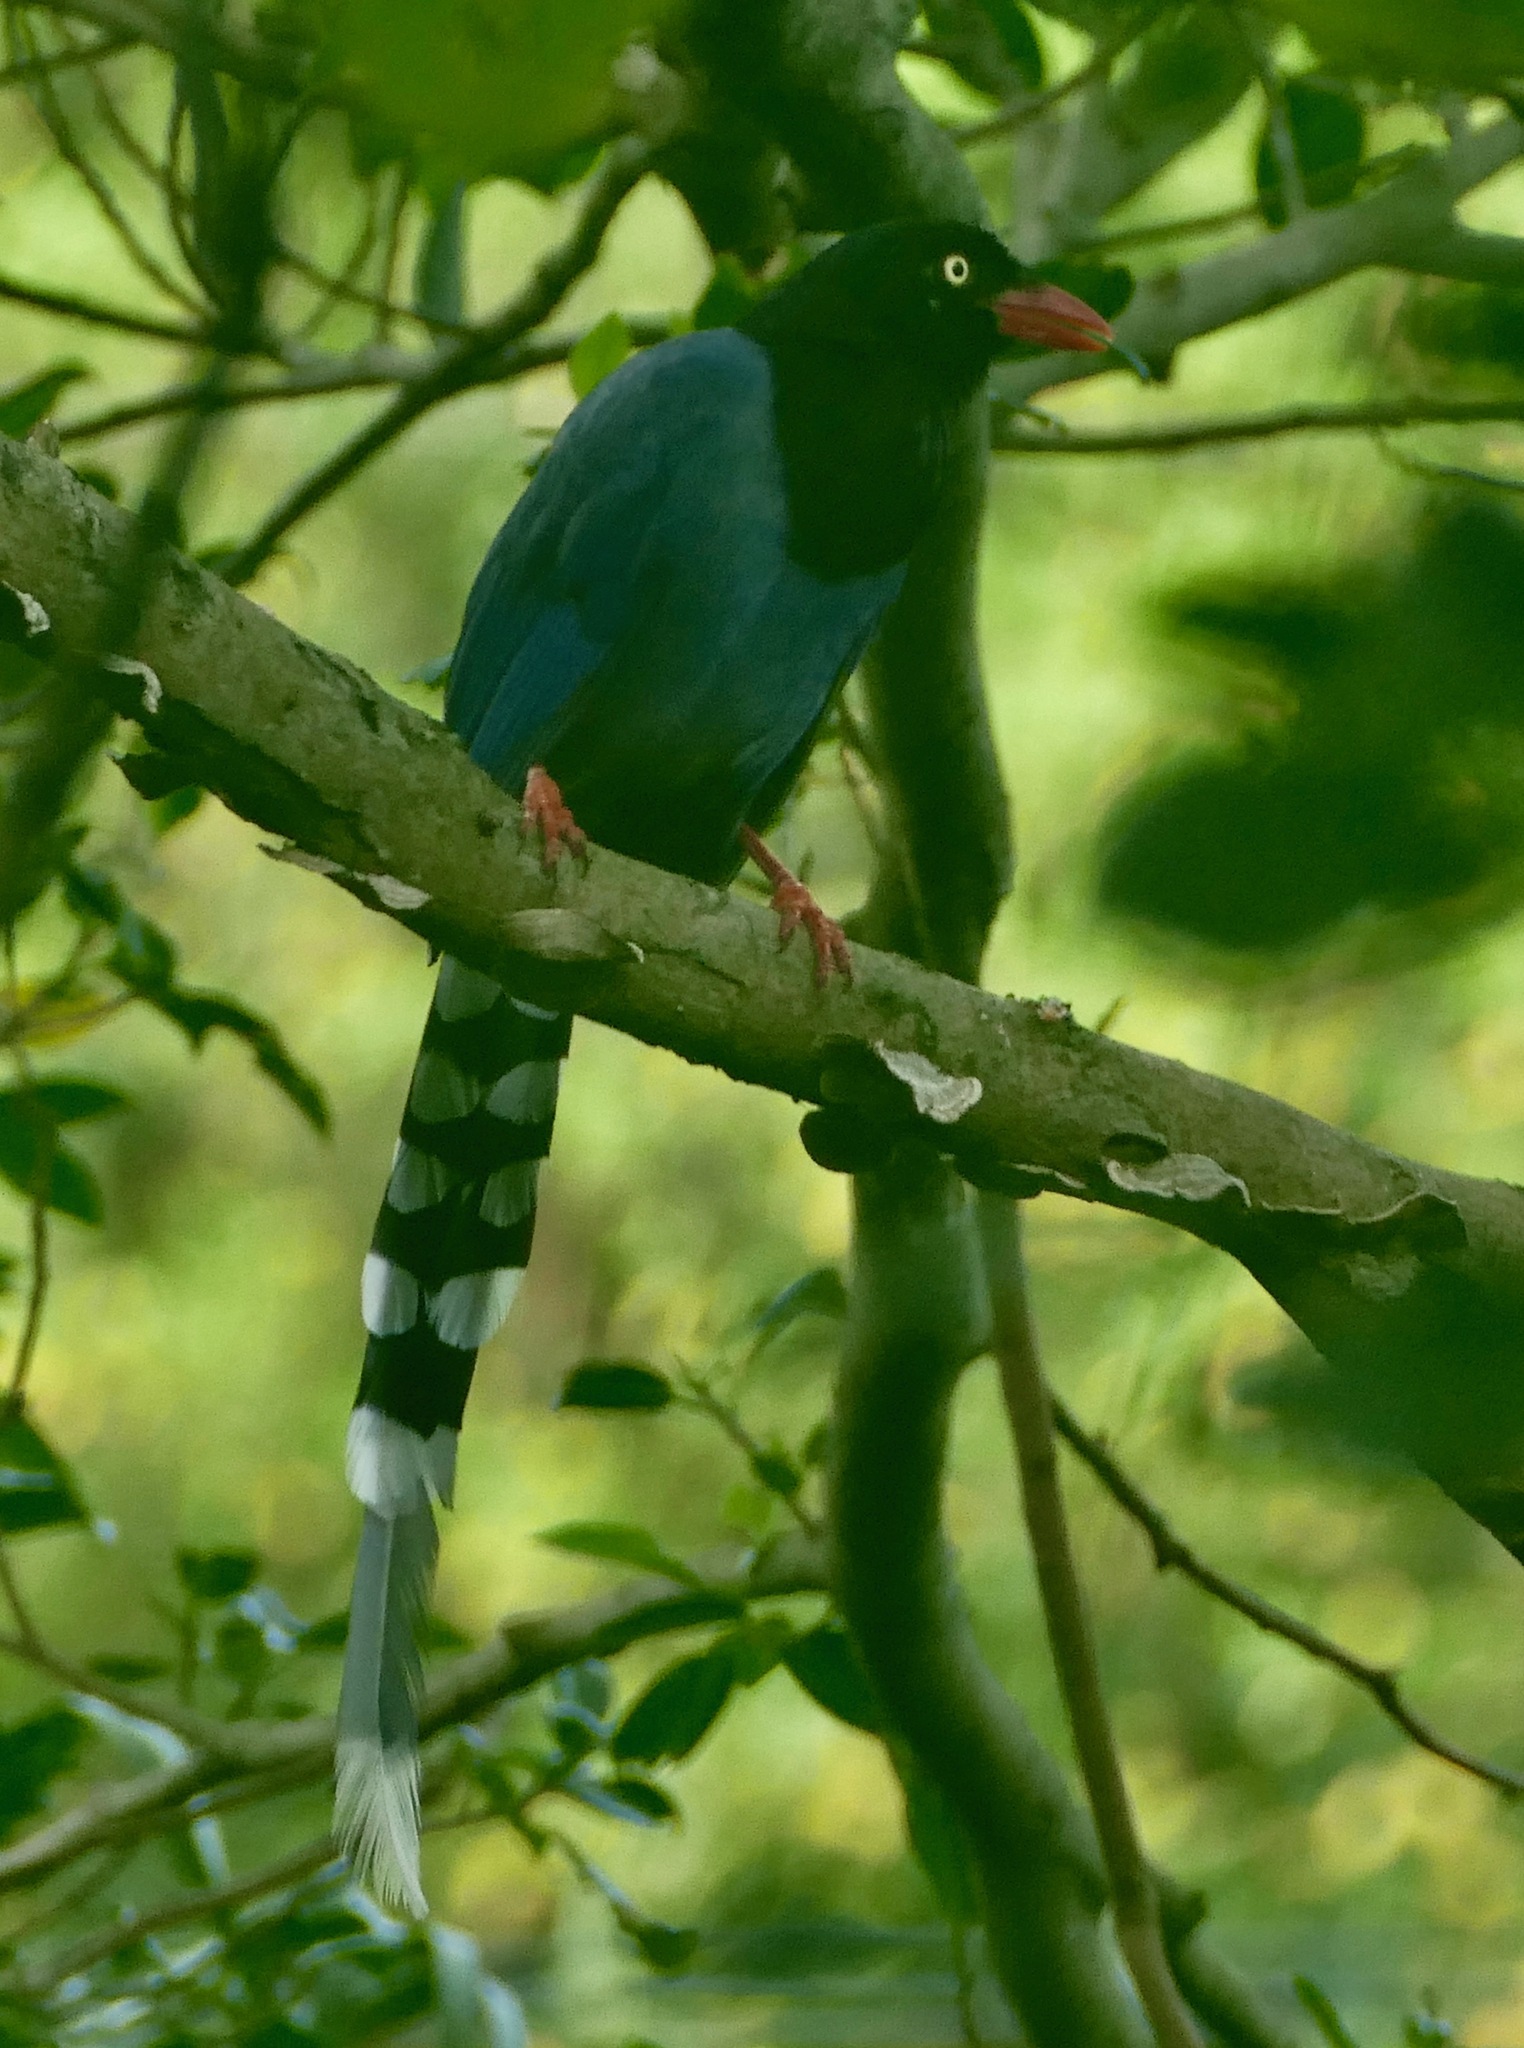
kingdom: Animalia
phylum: Chordata
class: Aves
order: Passeriformes
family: Corvidae
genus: Urocissa
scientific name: Urocissa caerulea
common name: Taiwan blue magpie
